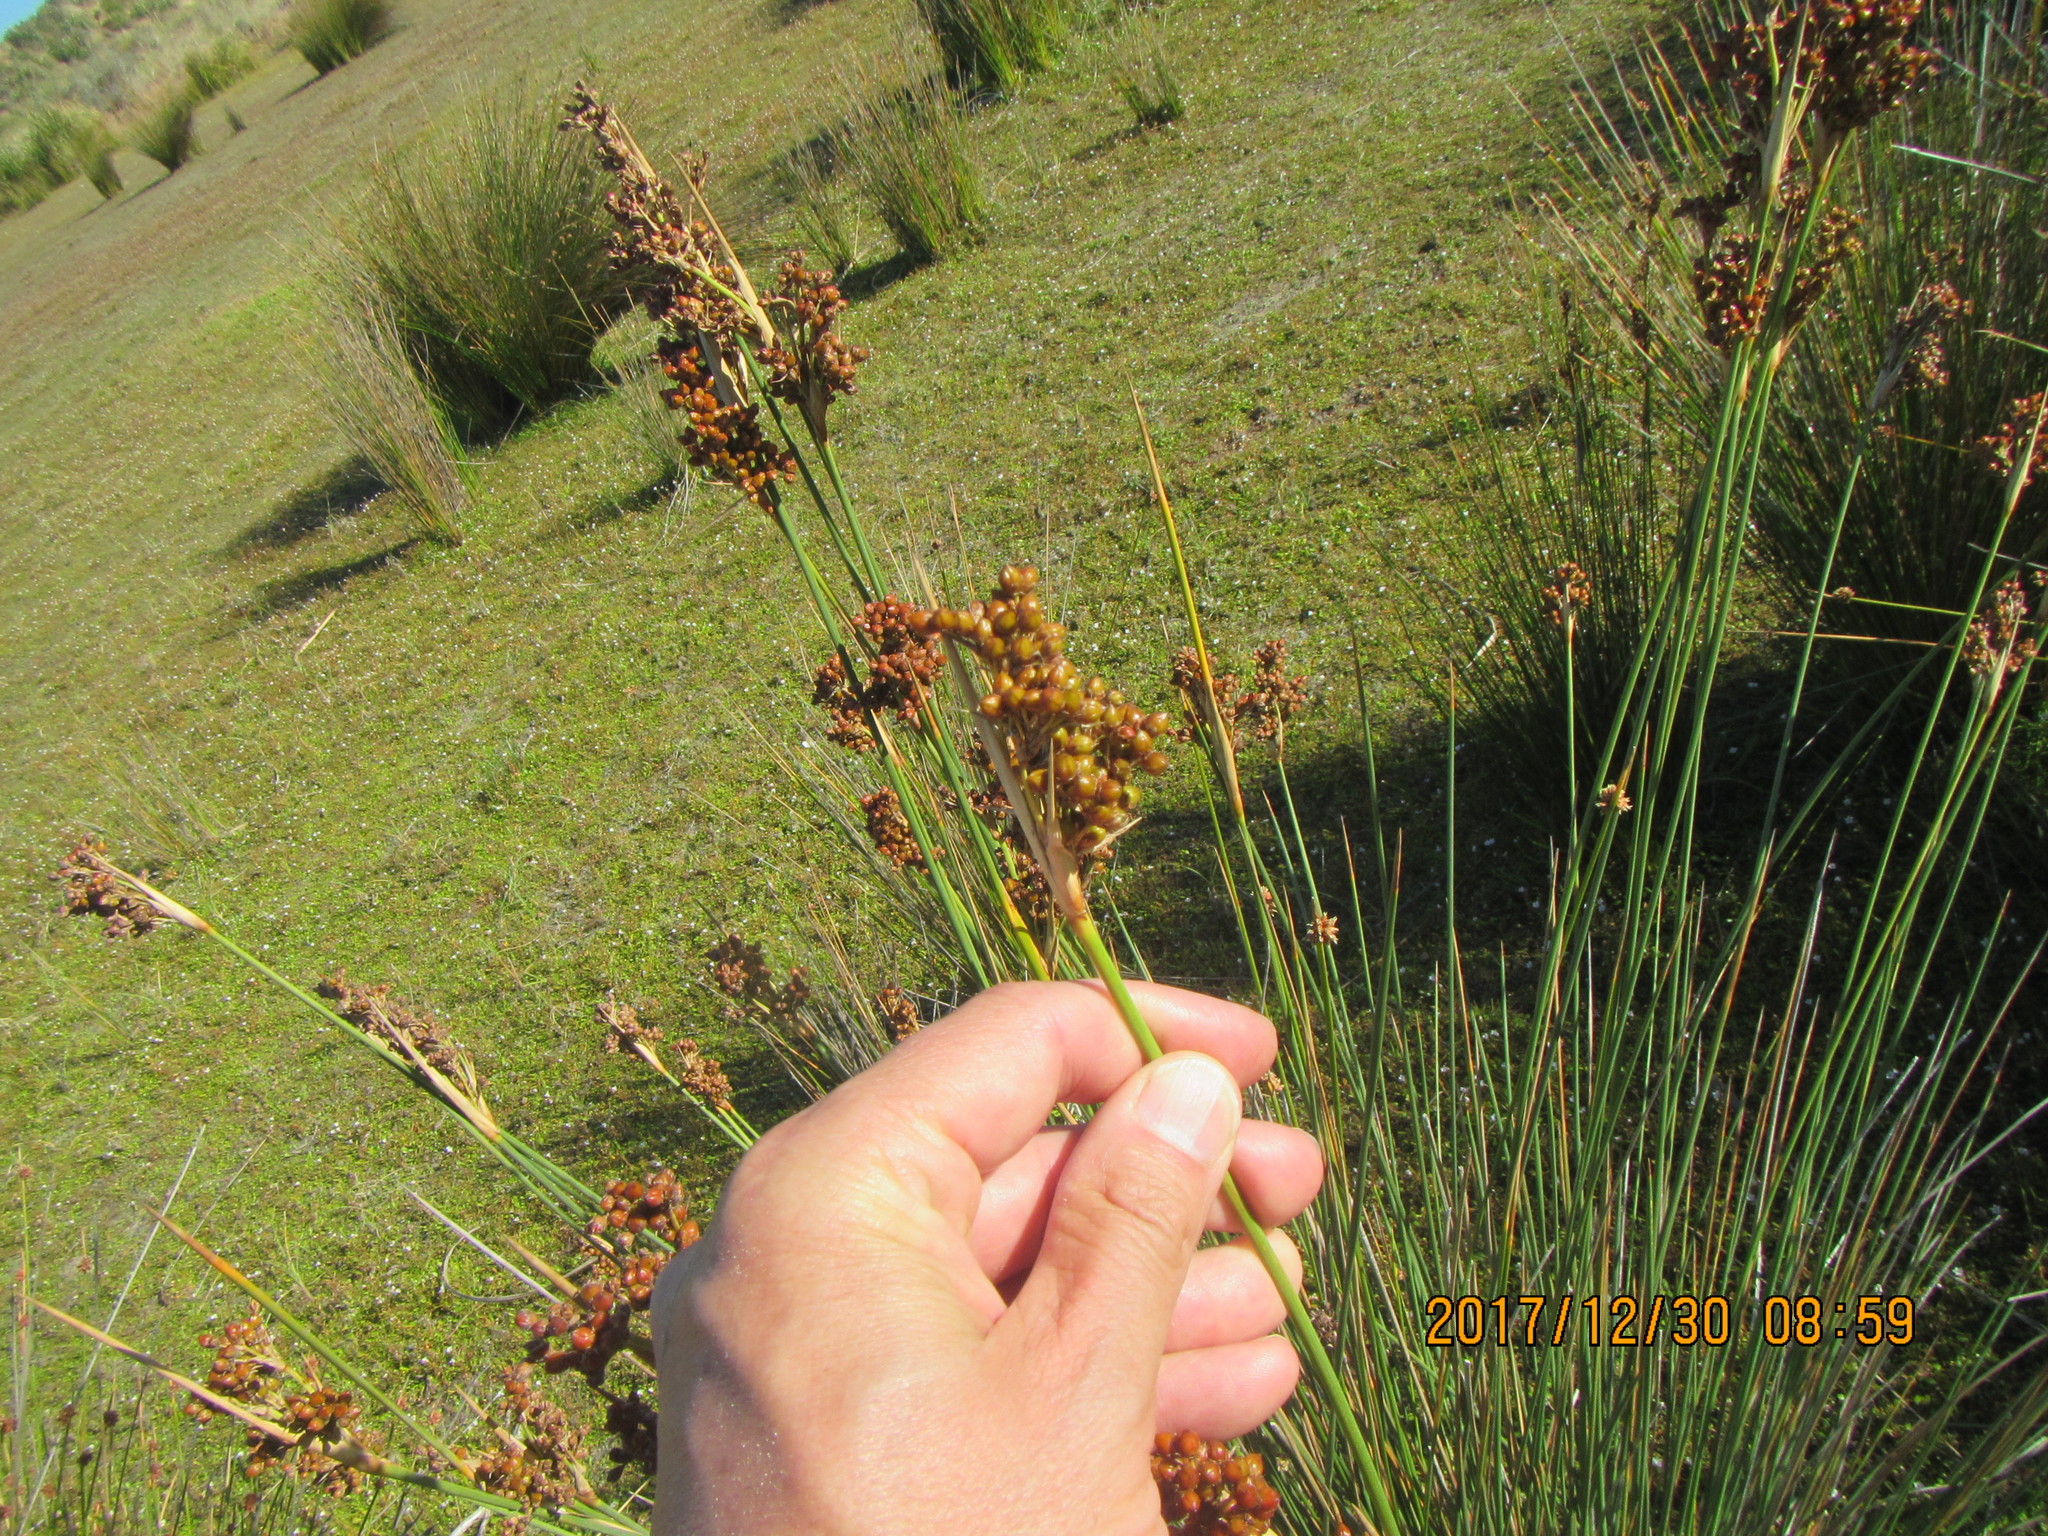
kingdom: Plantae
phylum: Tracheophyta
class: Liliopsida
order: Poales
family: Juncaceae
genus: Juncus
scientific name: Juncus acutus
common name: Sharp rush
